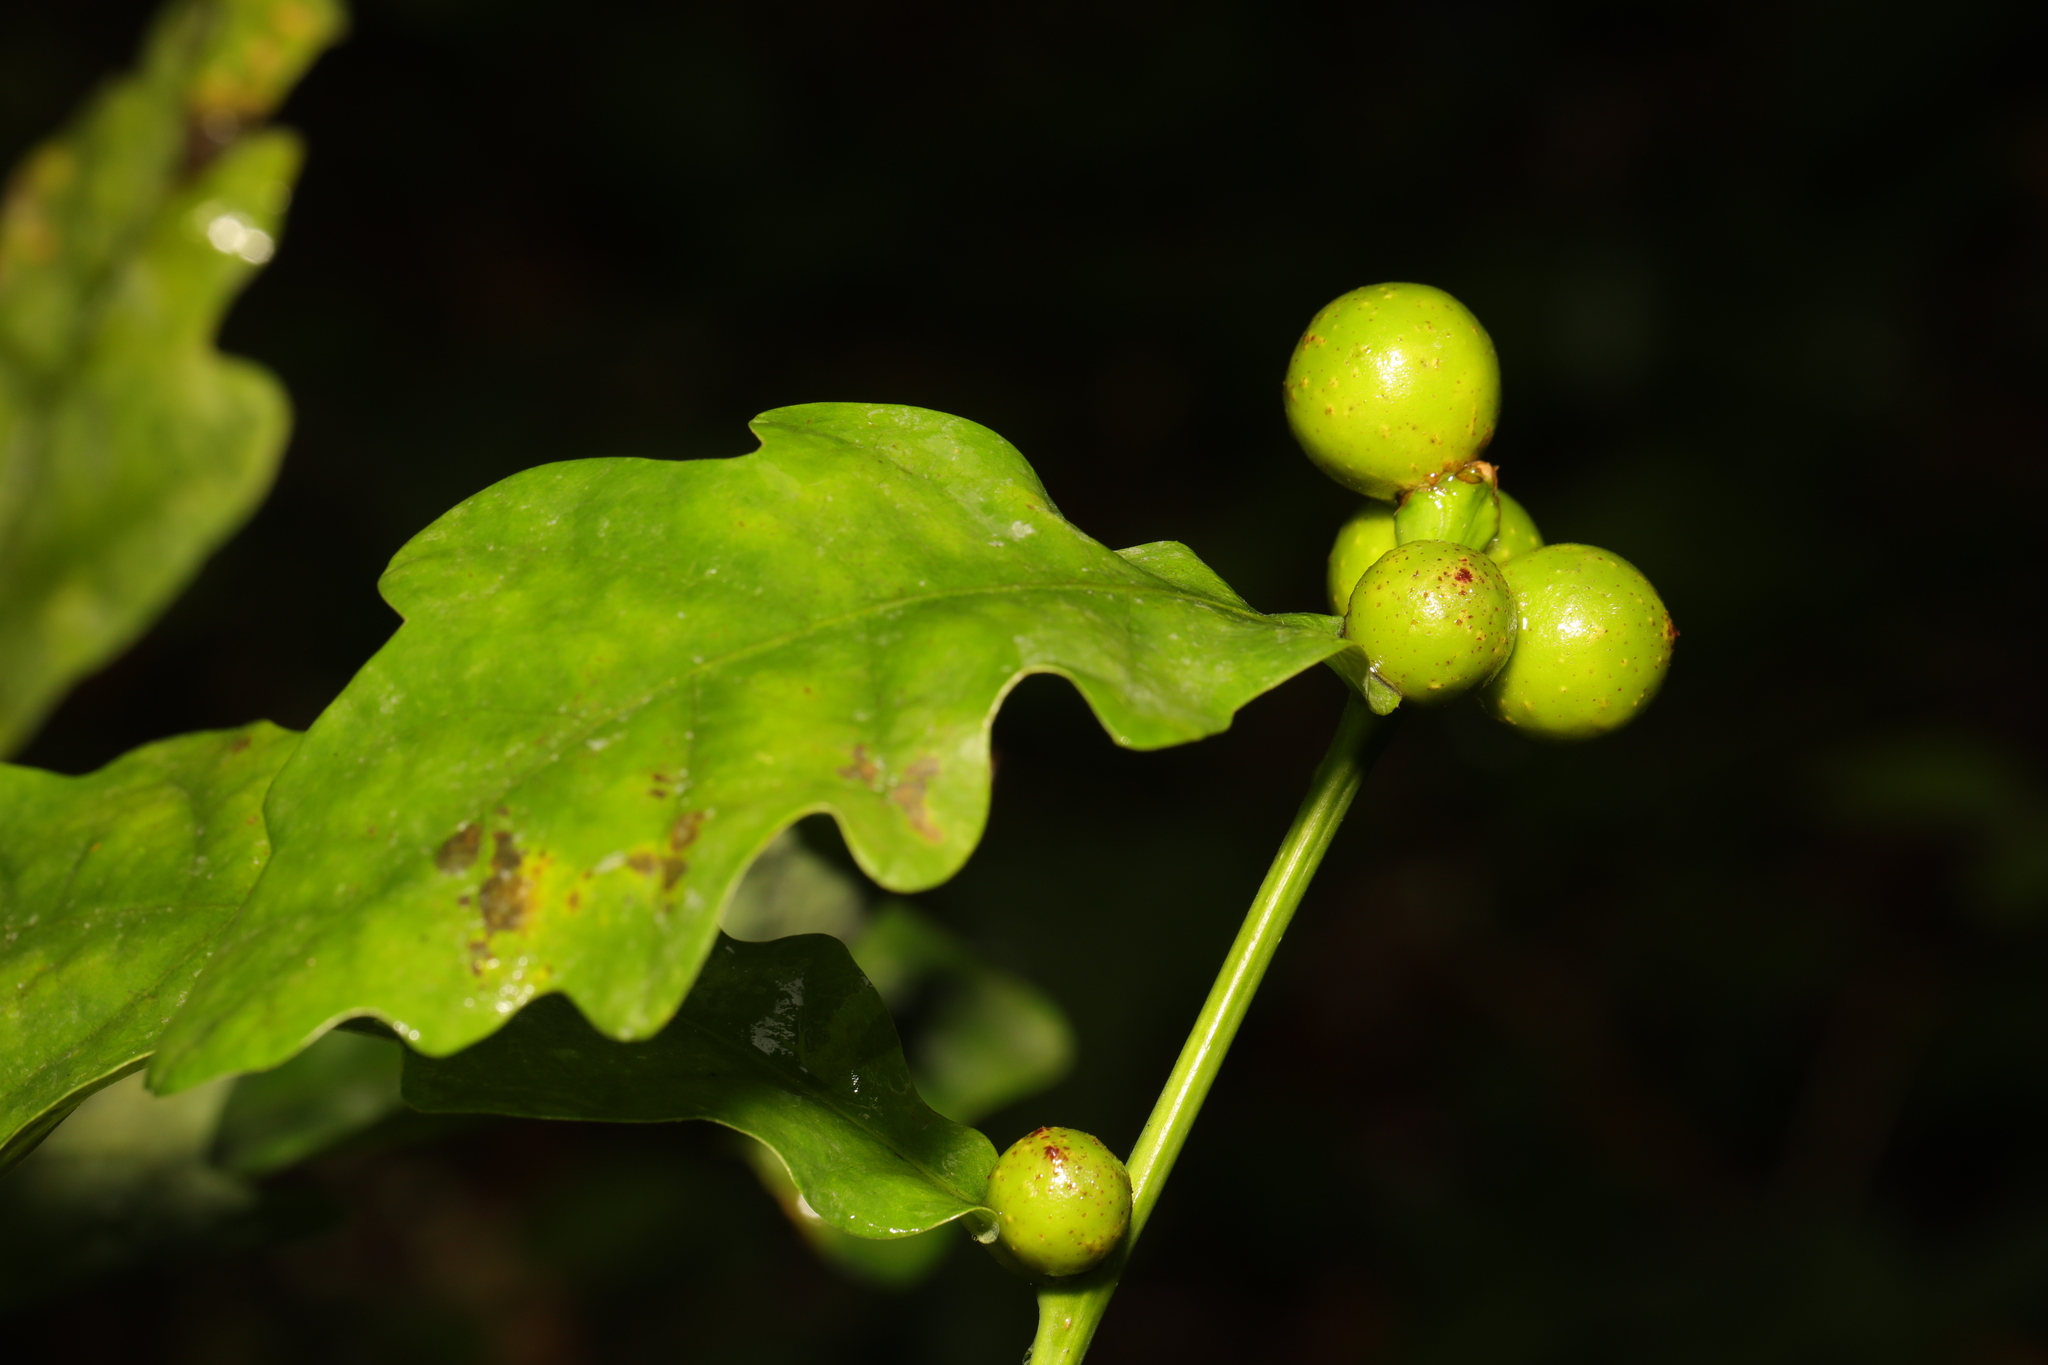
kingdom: Animalia
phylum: Arthropoda
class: Insecta
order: Hymenoptera
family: Cynipidae
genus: Andricus
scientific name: Andricus kollari
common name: Marble gall
